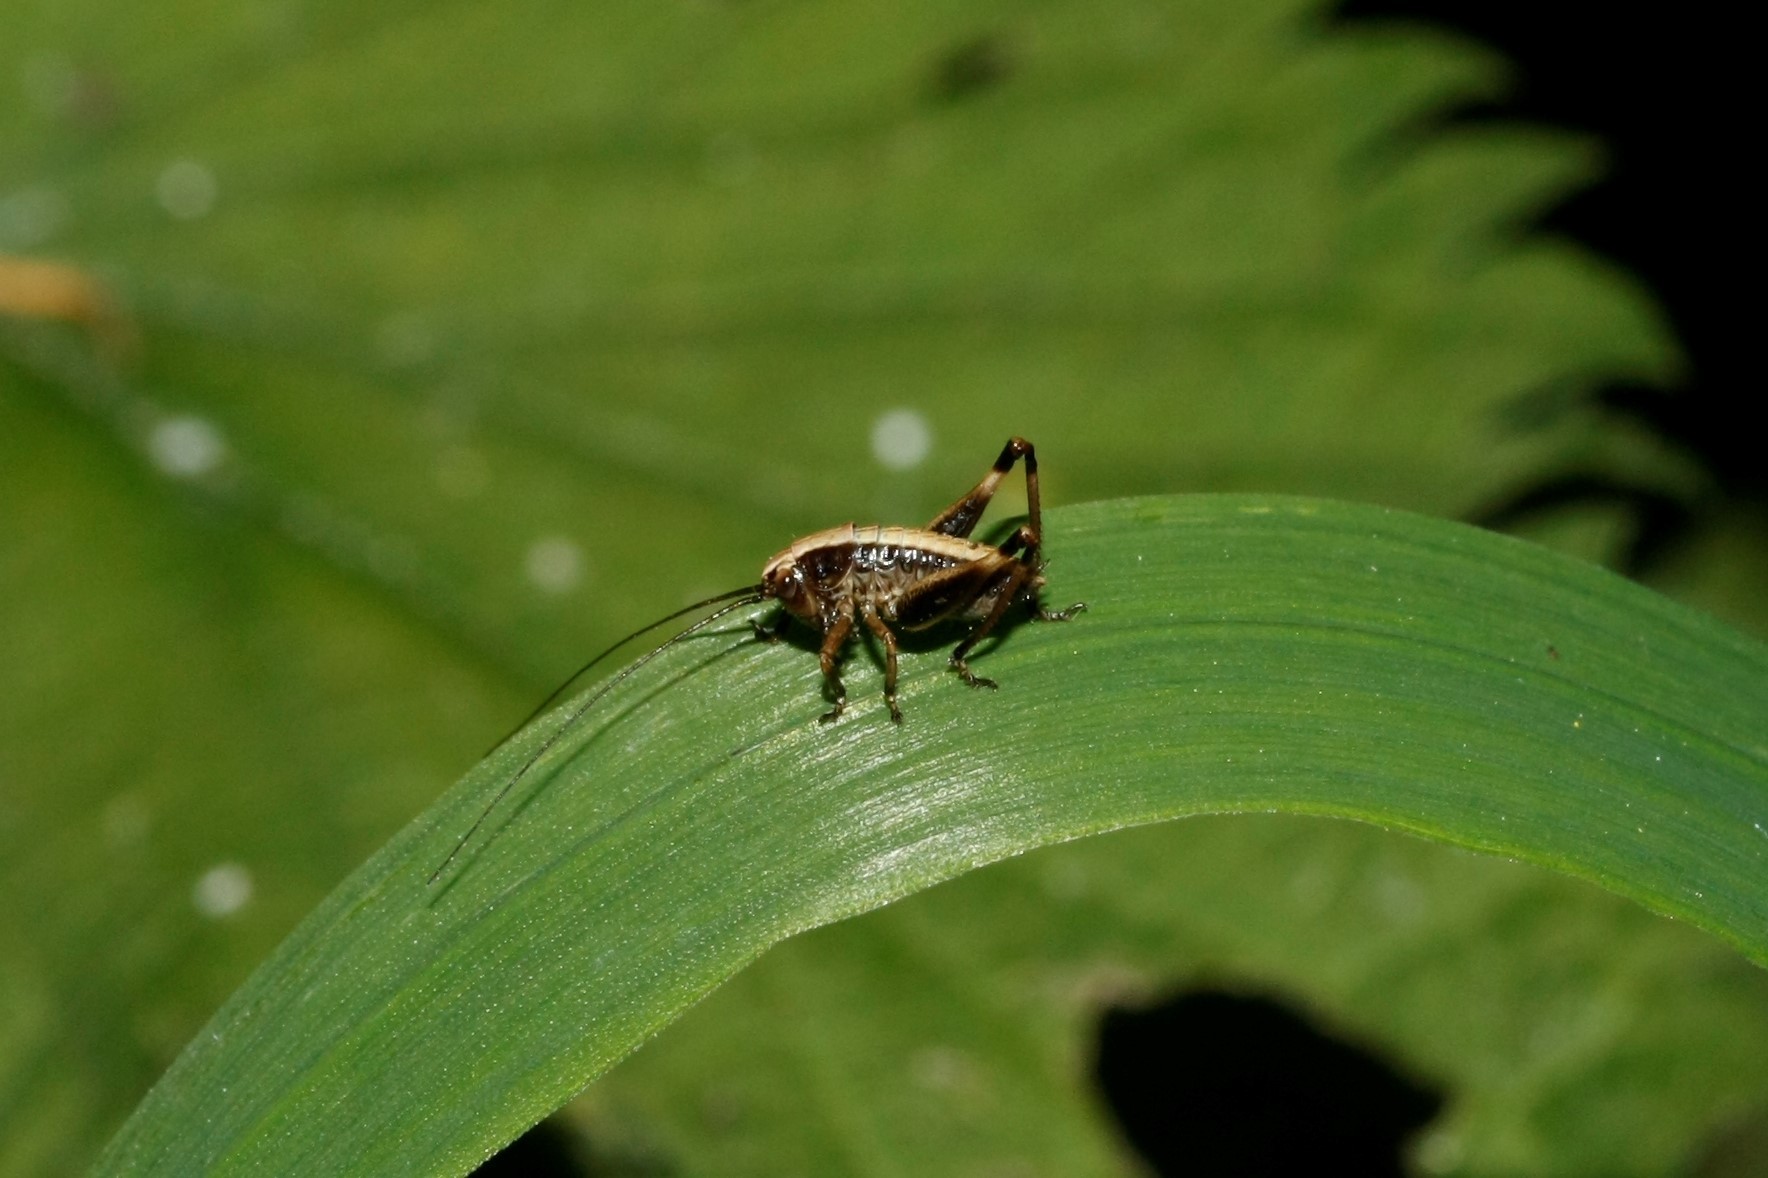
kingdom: Animalia
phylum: Arthropoda
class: Insecta
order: Orthoptera
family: Tettigoniidae
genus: Pholidoptera
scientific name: Pholidoptera griseoaptera
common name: Dark bush-cricket
